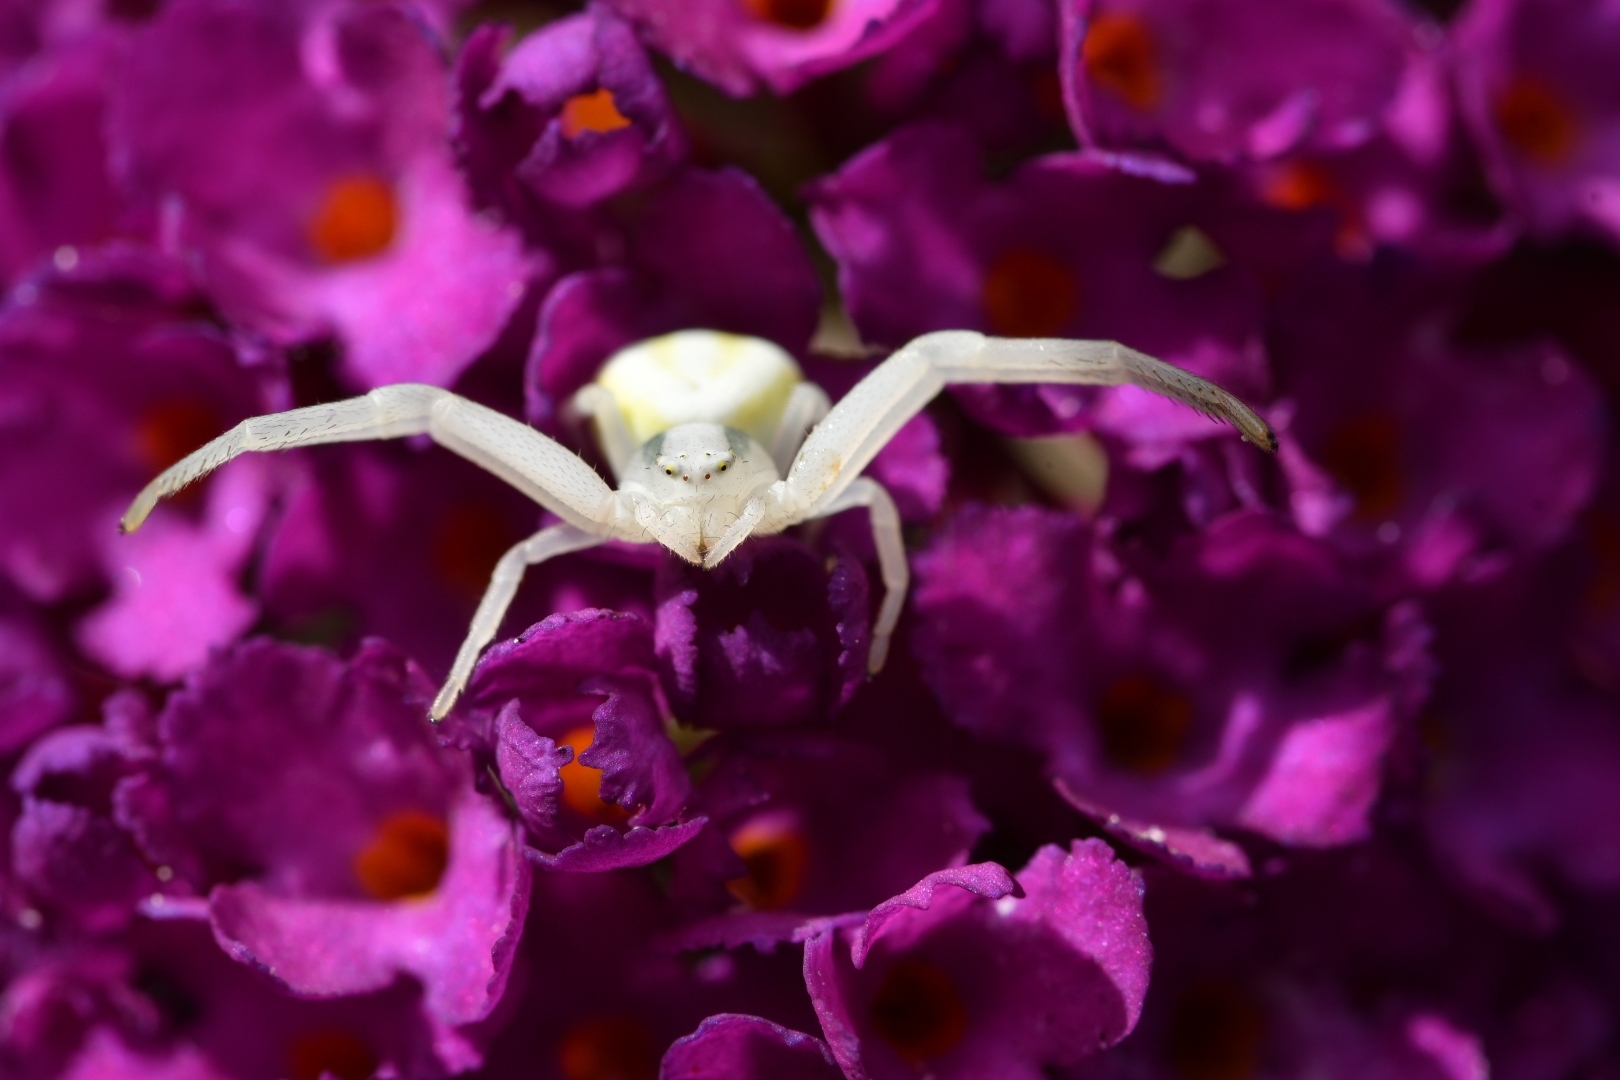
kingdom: Animalia
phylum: Arthropoda
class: Arachnida
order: Araneae
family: Thomisidae
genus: Misumena
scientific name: Misumena vatia
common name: Goldenrod crab spider
